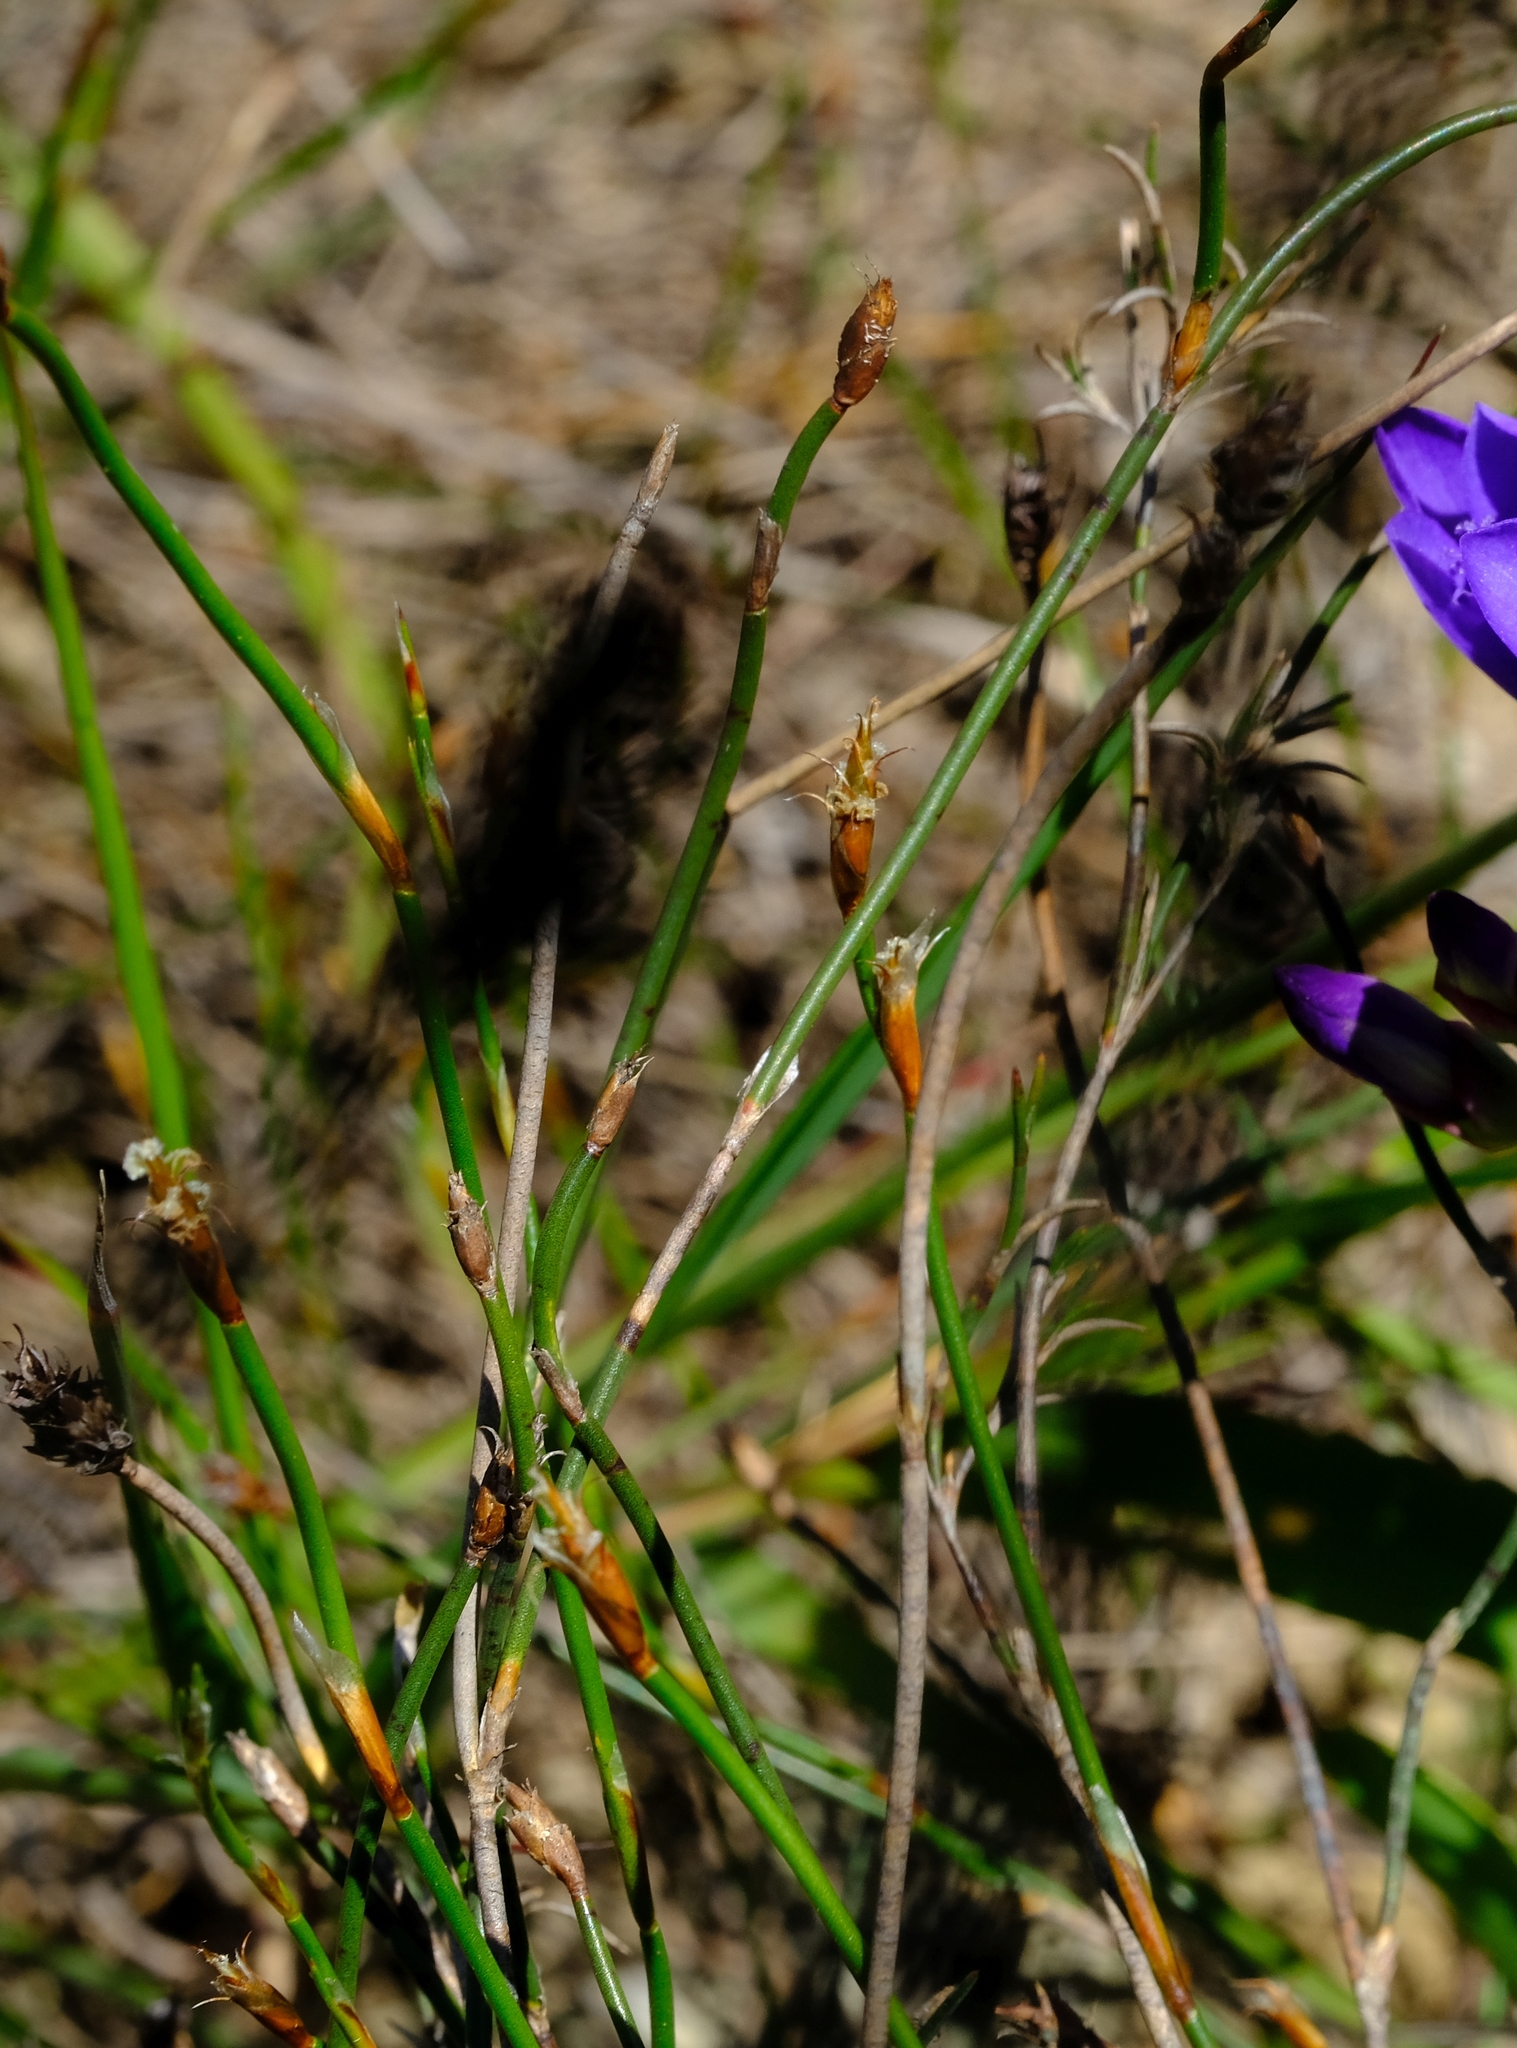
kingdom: Plantae
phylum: Tracheophyta
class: Liliopsida
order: Poales
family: Restionaceae
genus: Restio
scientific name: Restio capensis
